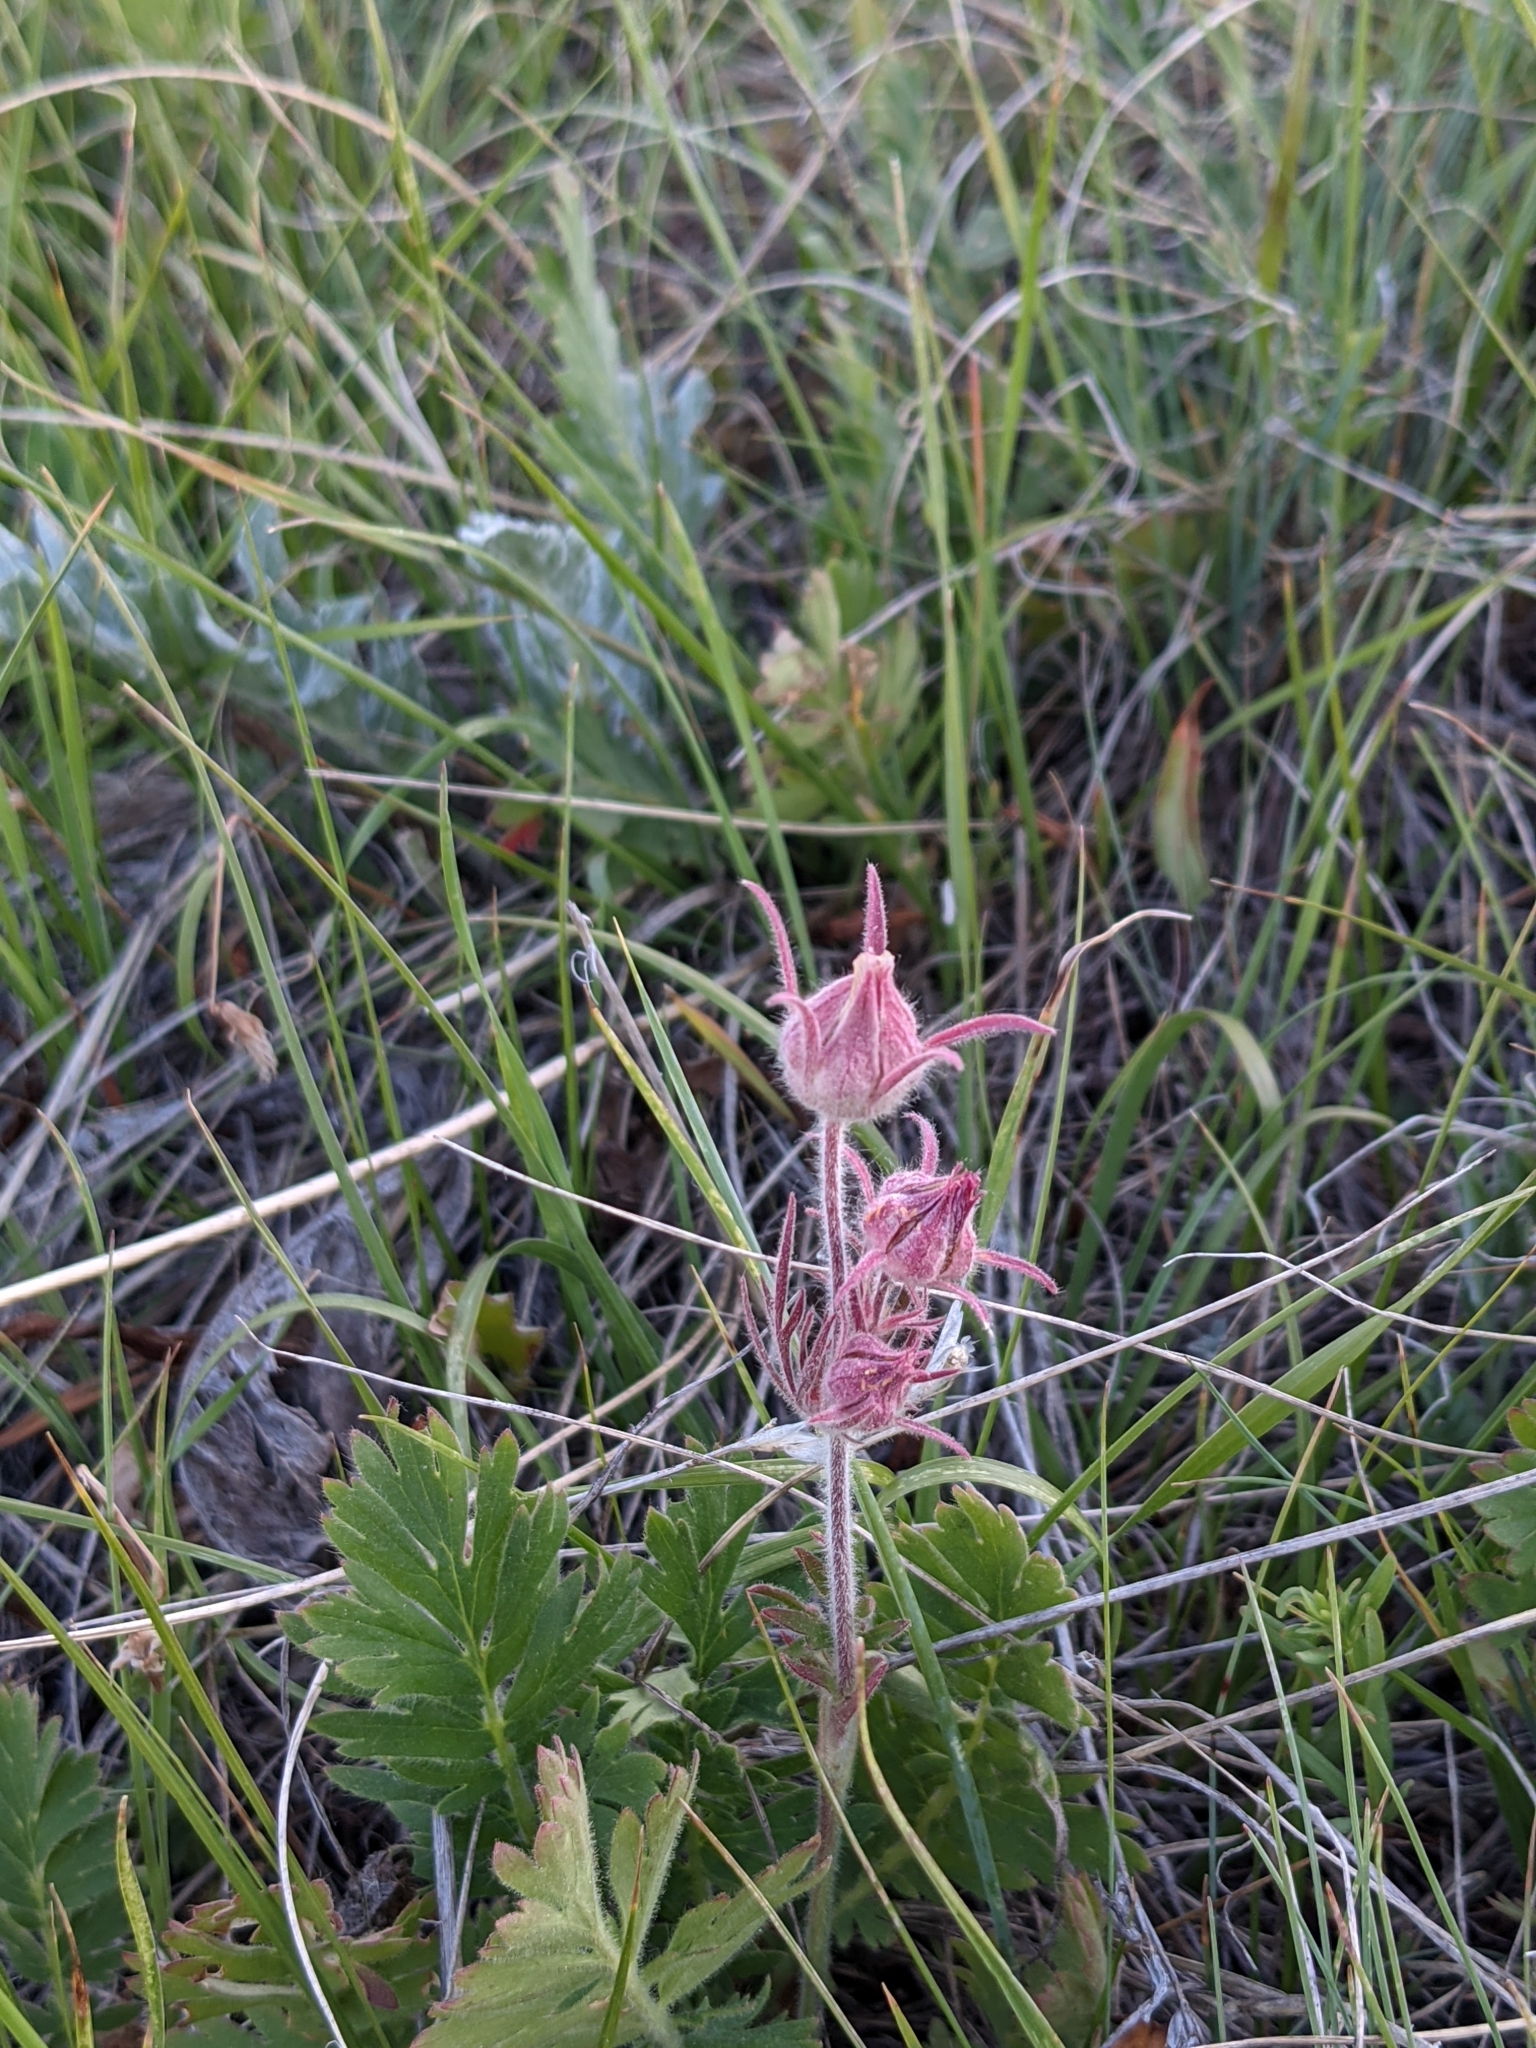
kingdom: Plantae
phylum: Tracheophyta
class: Magnoliopsida
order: Rosales
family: Rosaceae
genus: Geum
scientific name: Geum triflorum
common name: Old man's whiskers
